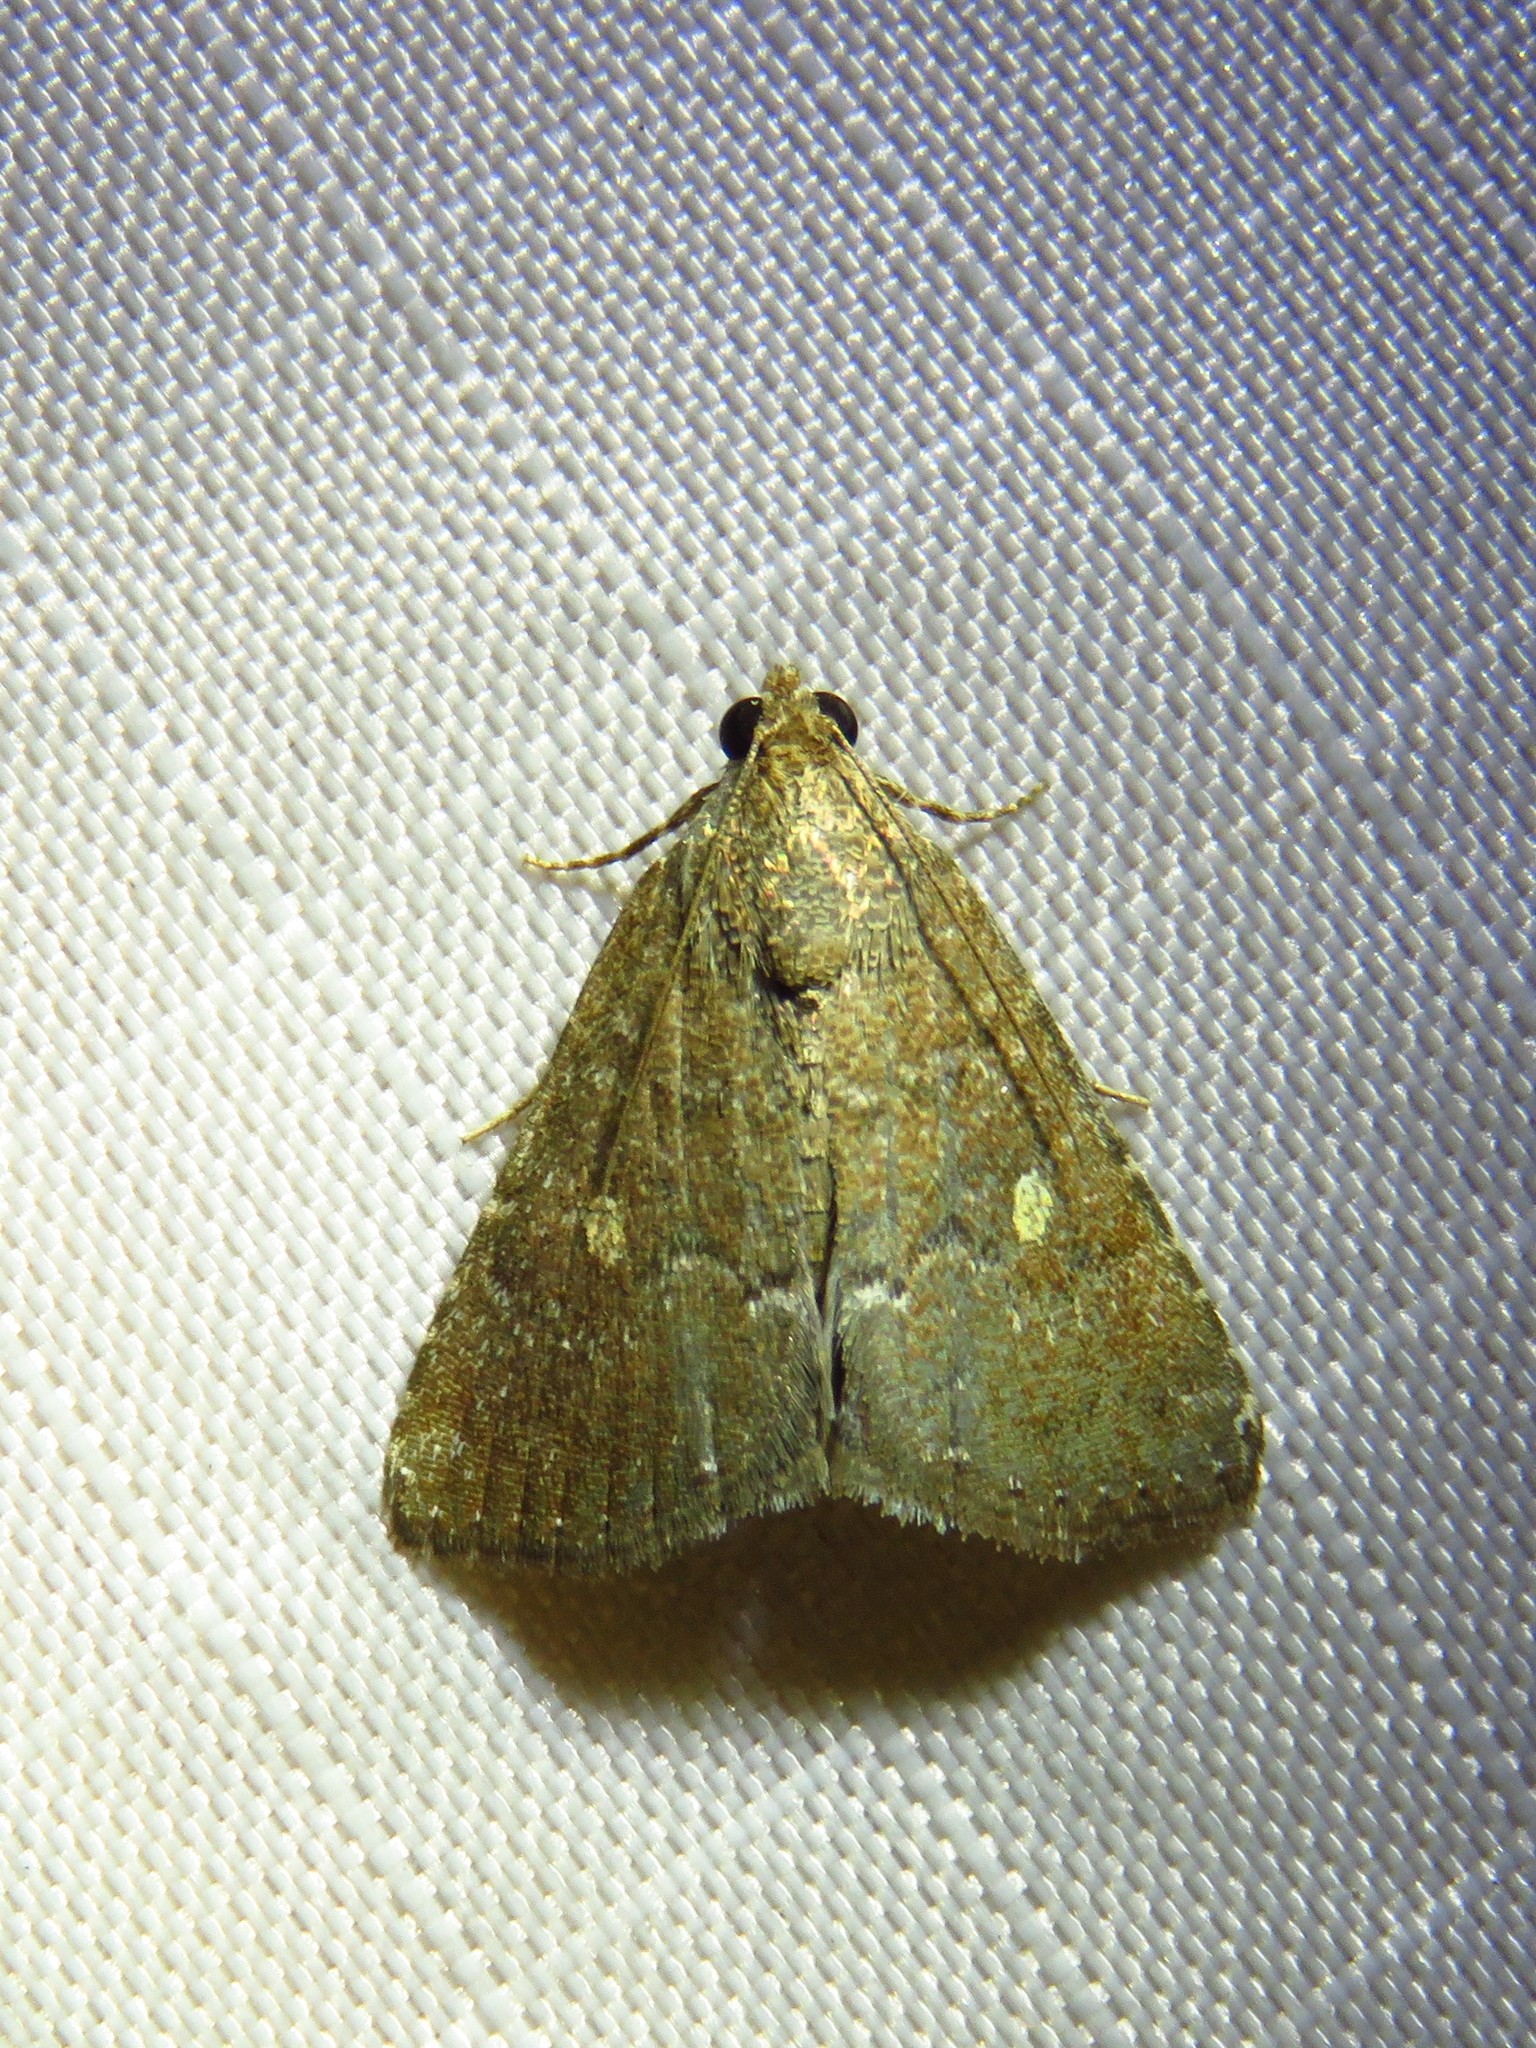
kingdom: Animalia
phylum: Arthropoda
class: Insecta
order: Lepidoptera
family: Noctuidae
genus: Amyna
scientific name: Amyna stricta
